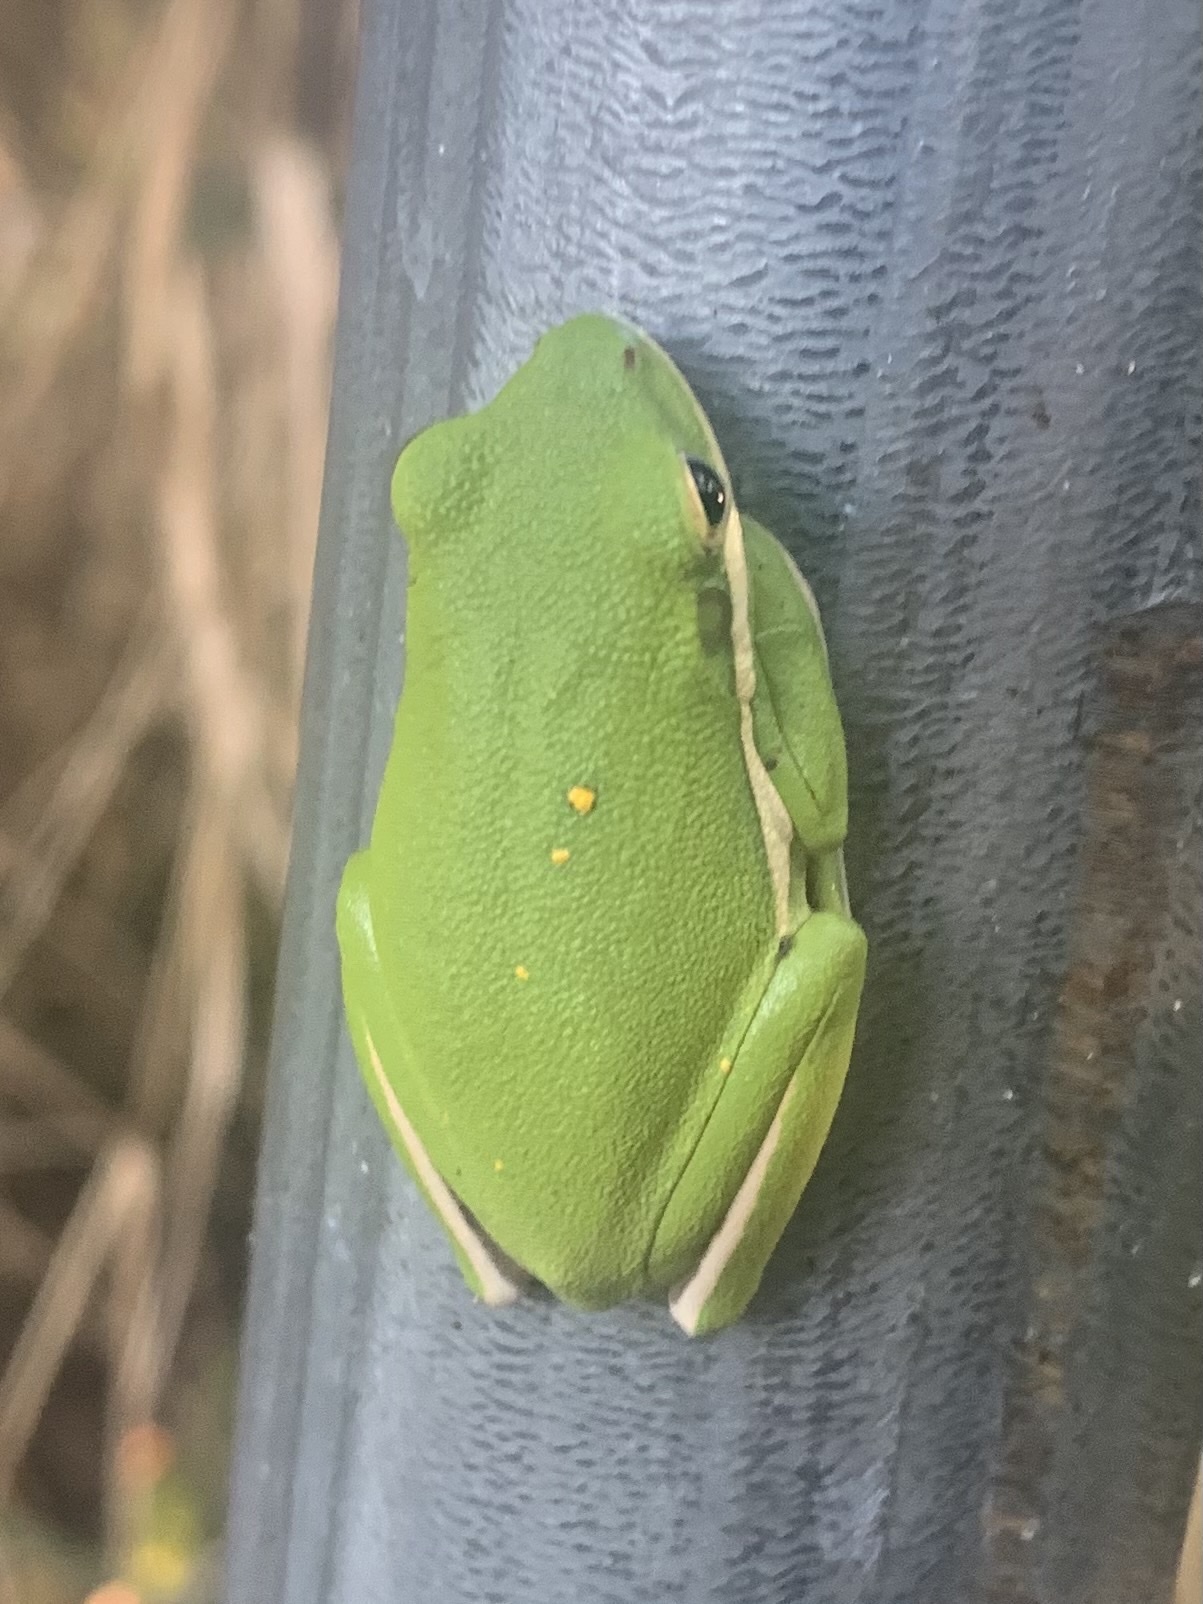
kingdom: Animalia
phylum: Chordata
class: Amphibia
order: Anura
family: Hylidae
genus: Dryophytes
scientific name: Dryophytes cinereus
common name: Green treefrog
